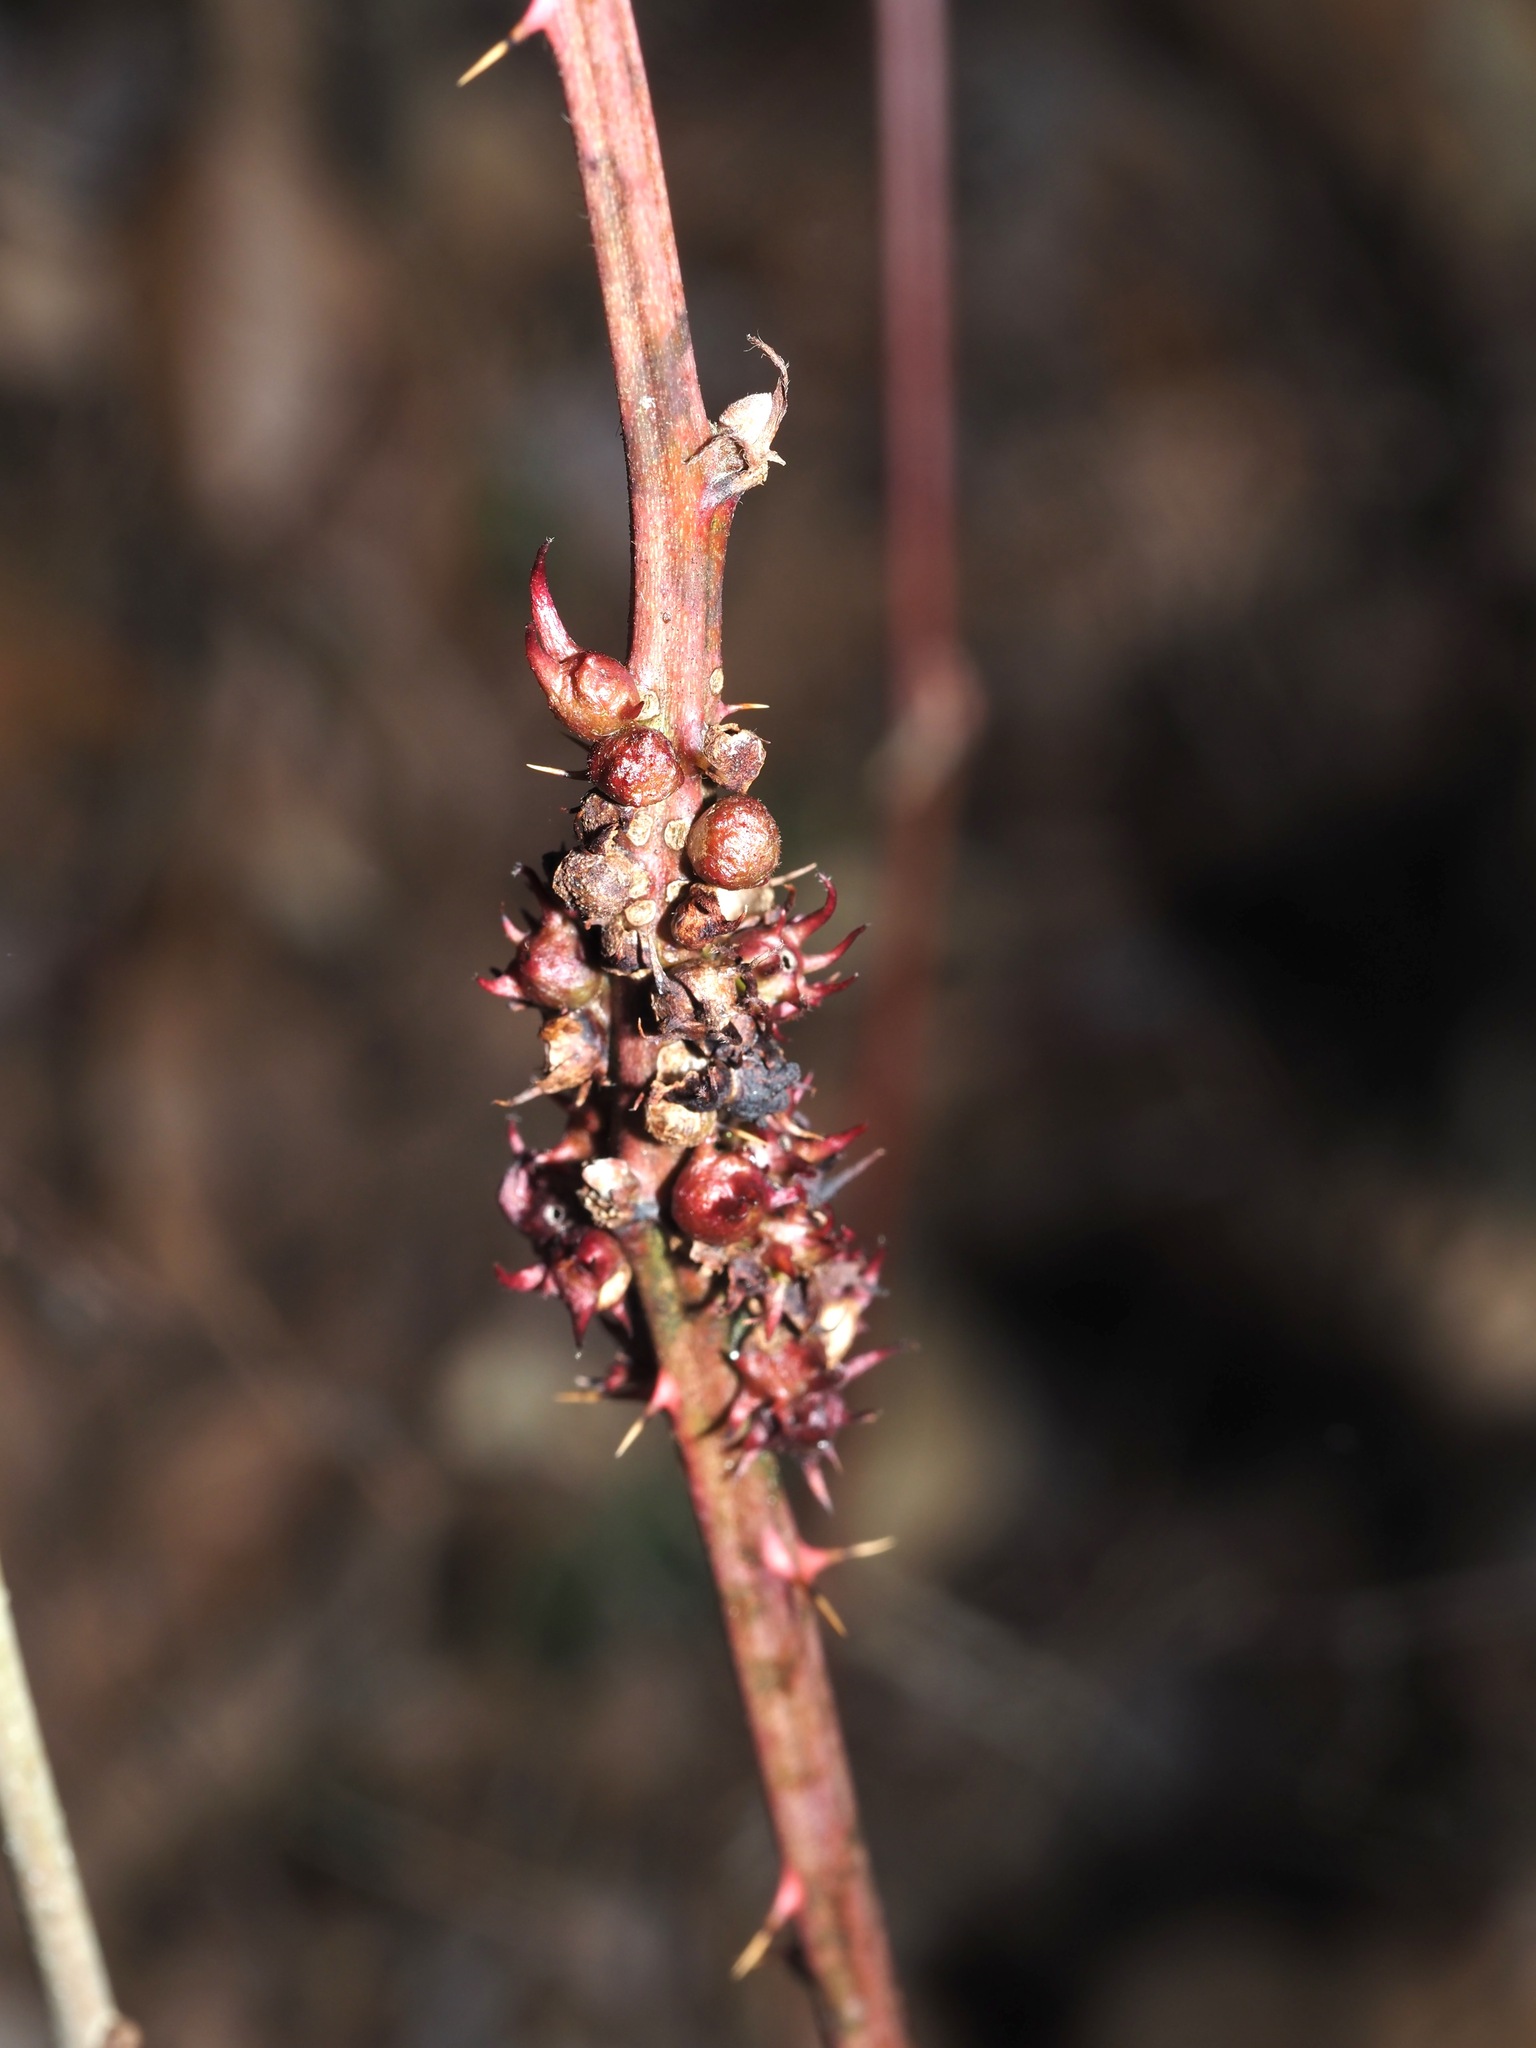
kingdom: Animalia
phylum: Arthropoda
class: Insecta
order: Hymenoptera
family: Cynipidae
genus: Diastrophus
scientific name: Diastrophus
